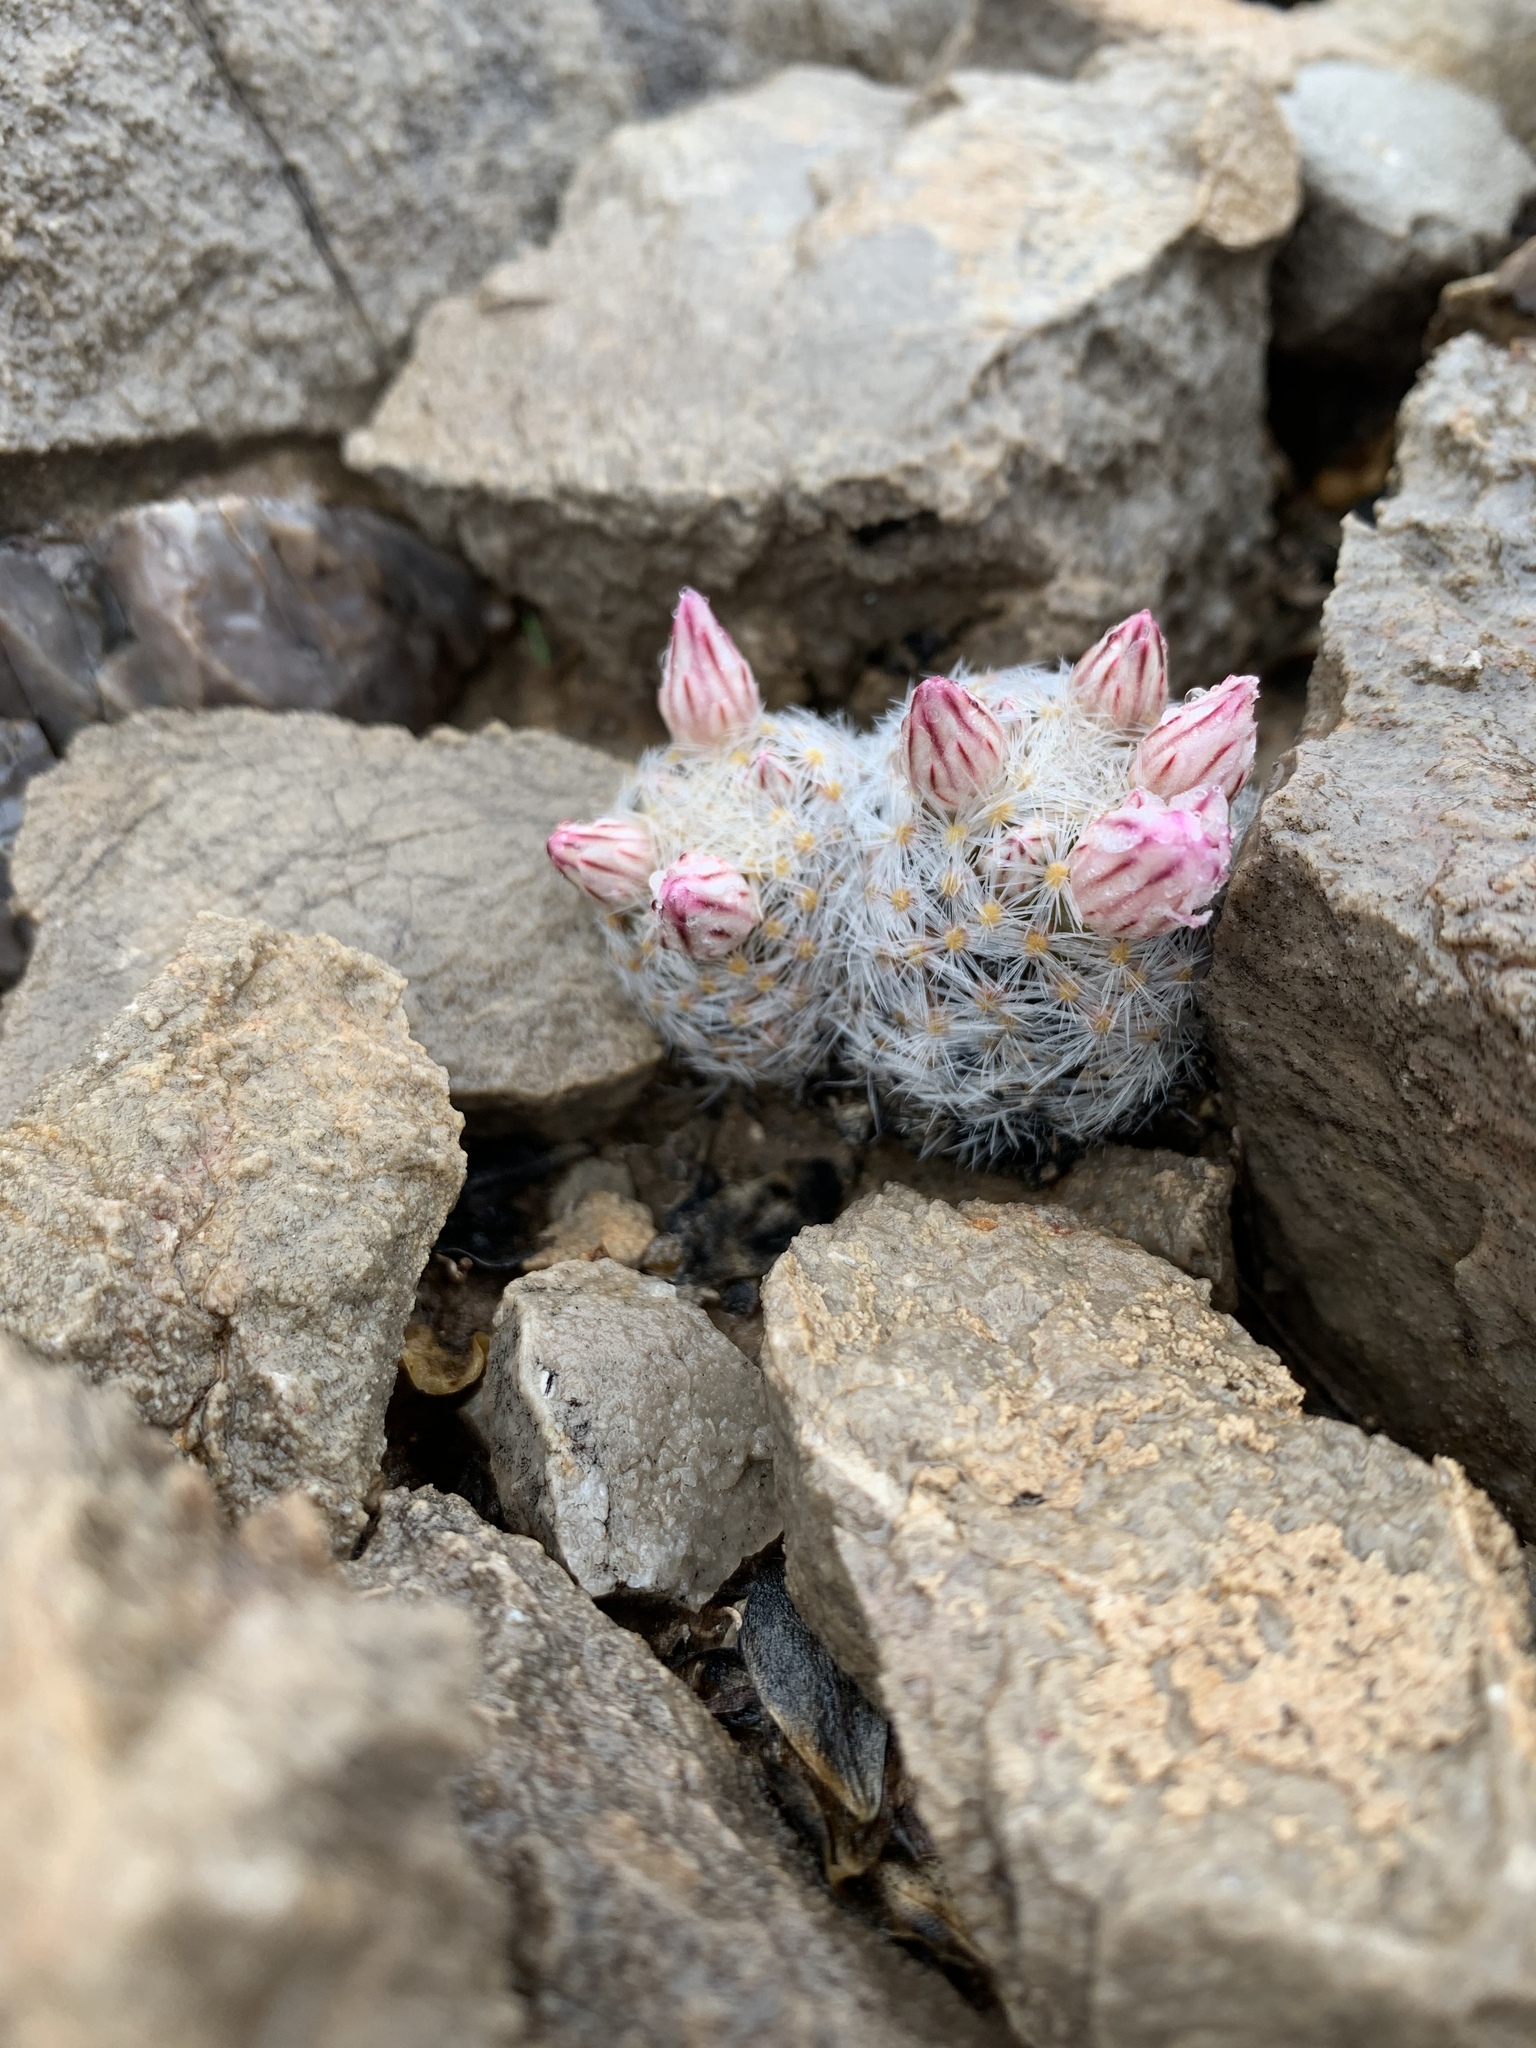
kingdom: Plantae
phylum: Tracheophyta
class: Magnoliopsida
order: Caryophyllales
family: Cactaceae
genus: Mammillaria
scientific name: Mammillaria lasiacantha
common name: Lace-spine nipple cactus
